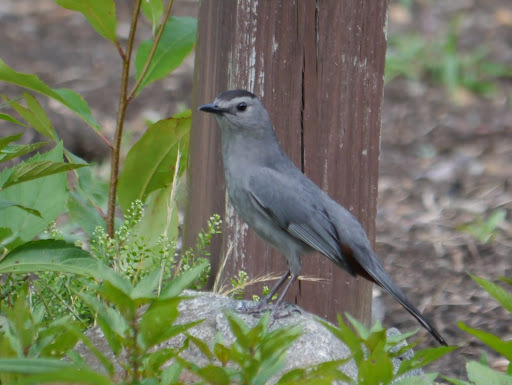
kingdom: Animalia
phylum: Chordata
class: Aves
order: Passeriformes
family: Mimidae
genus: Dumetella
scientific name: Dumetella carolinensis
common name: Gray catbird
